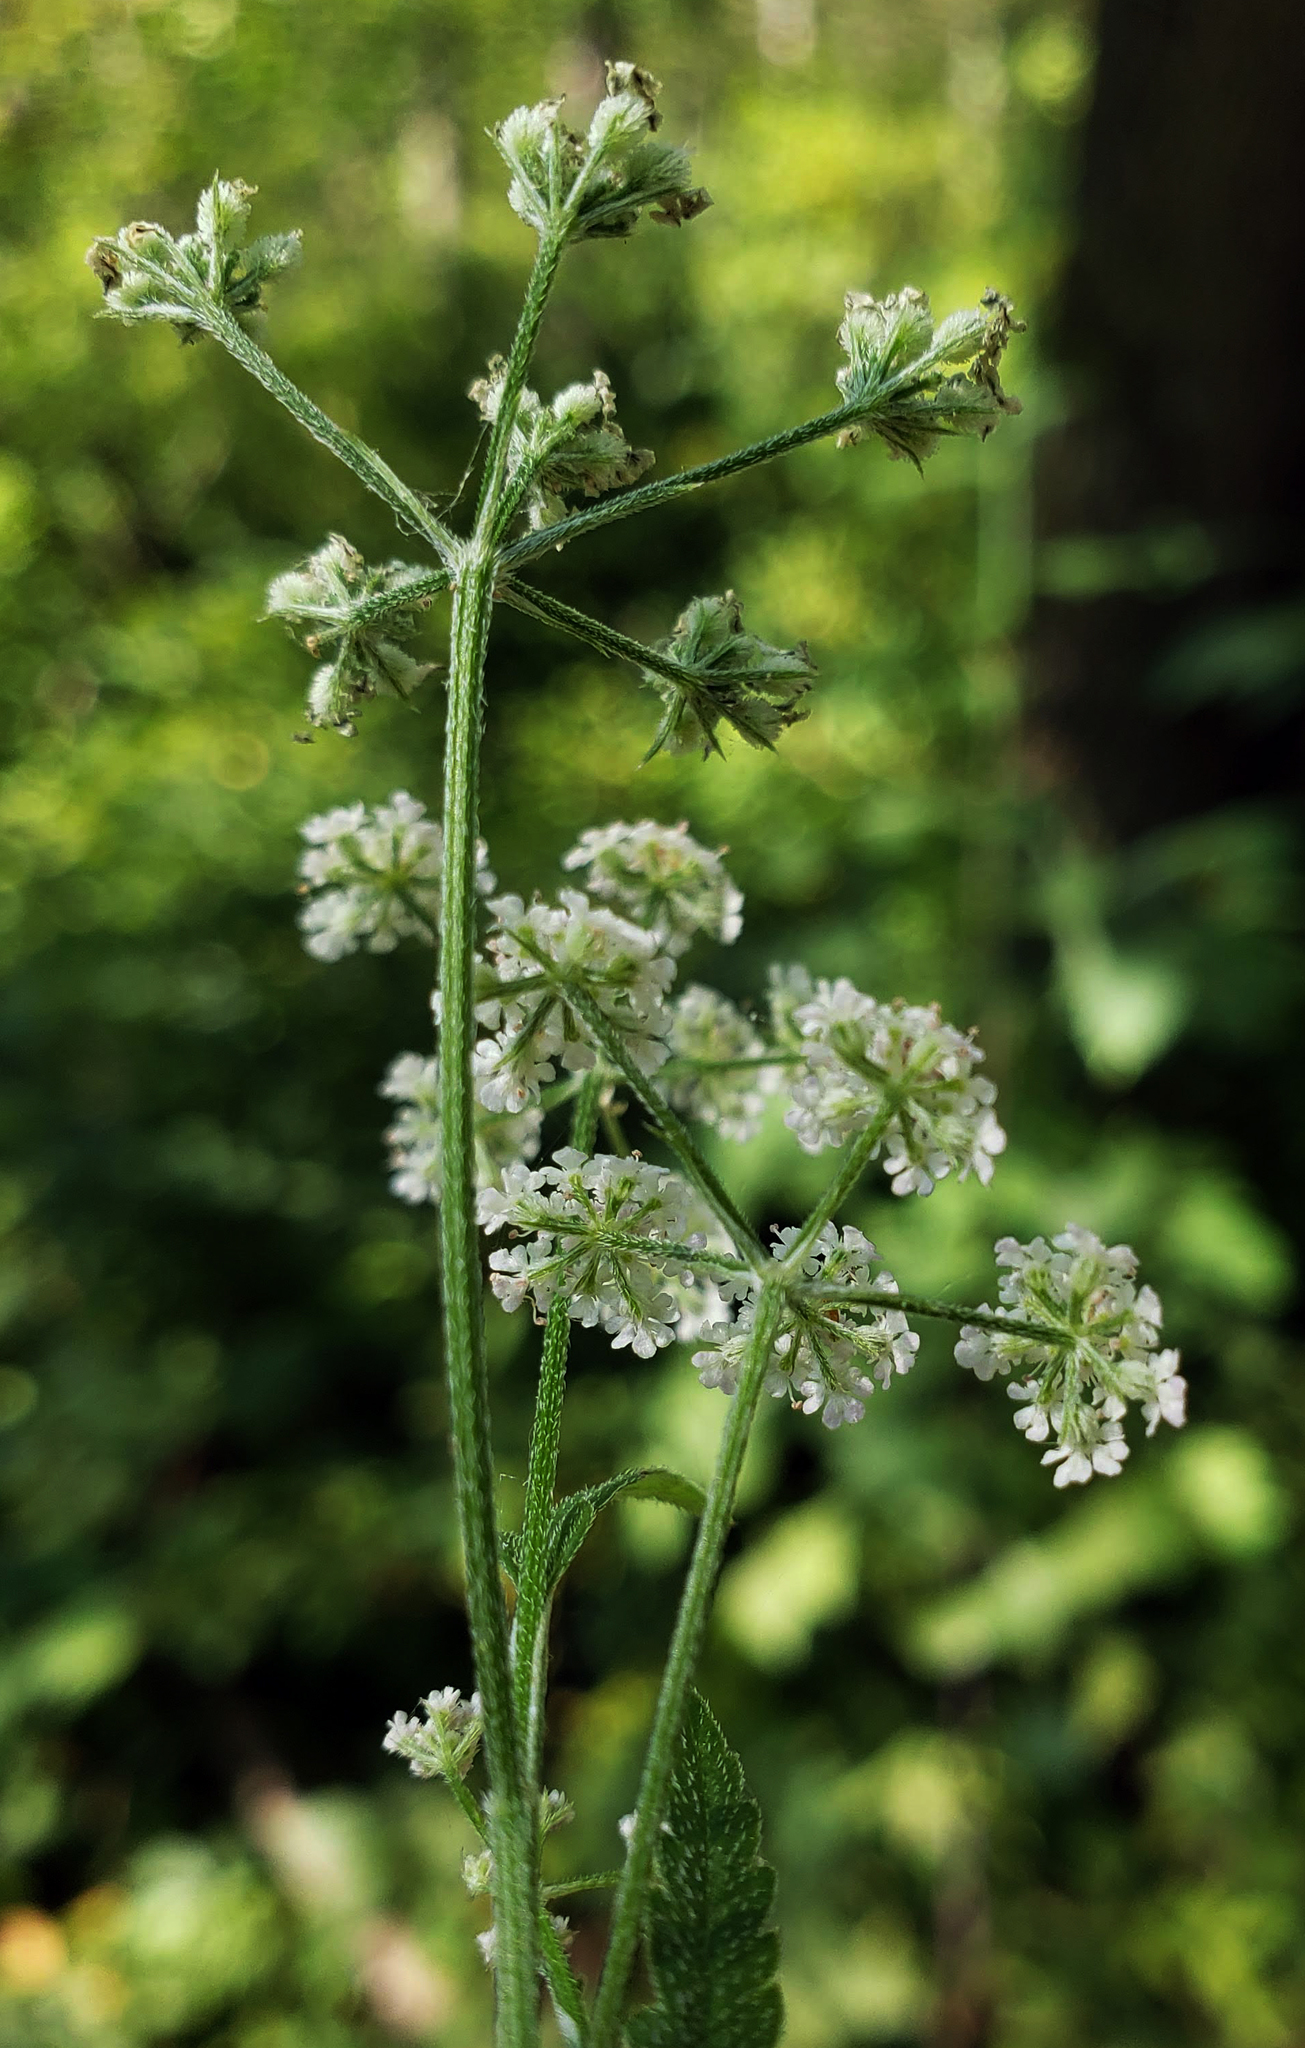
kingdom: Plantae
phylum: Tracheophyta
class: Magnoliopsida
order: Apiales
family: Apiaceae
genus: Torilis
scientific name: Torilis japonica
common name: Upright hedge-parsley
